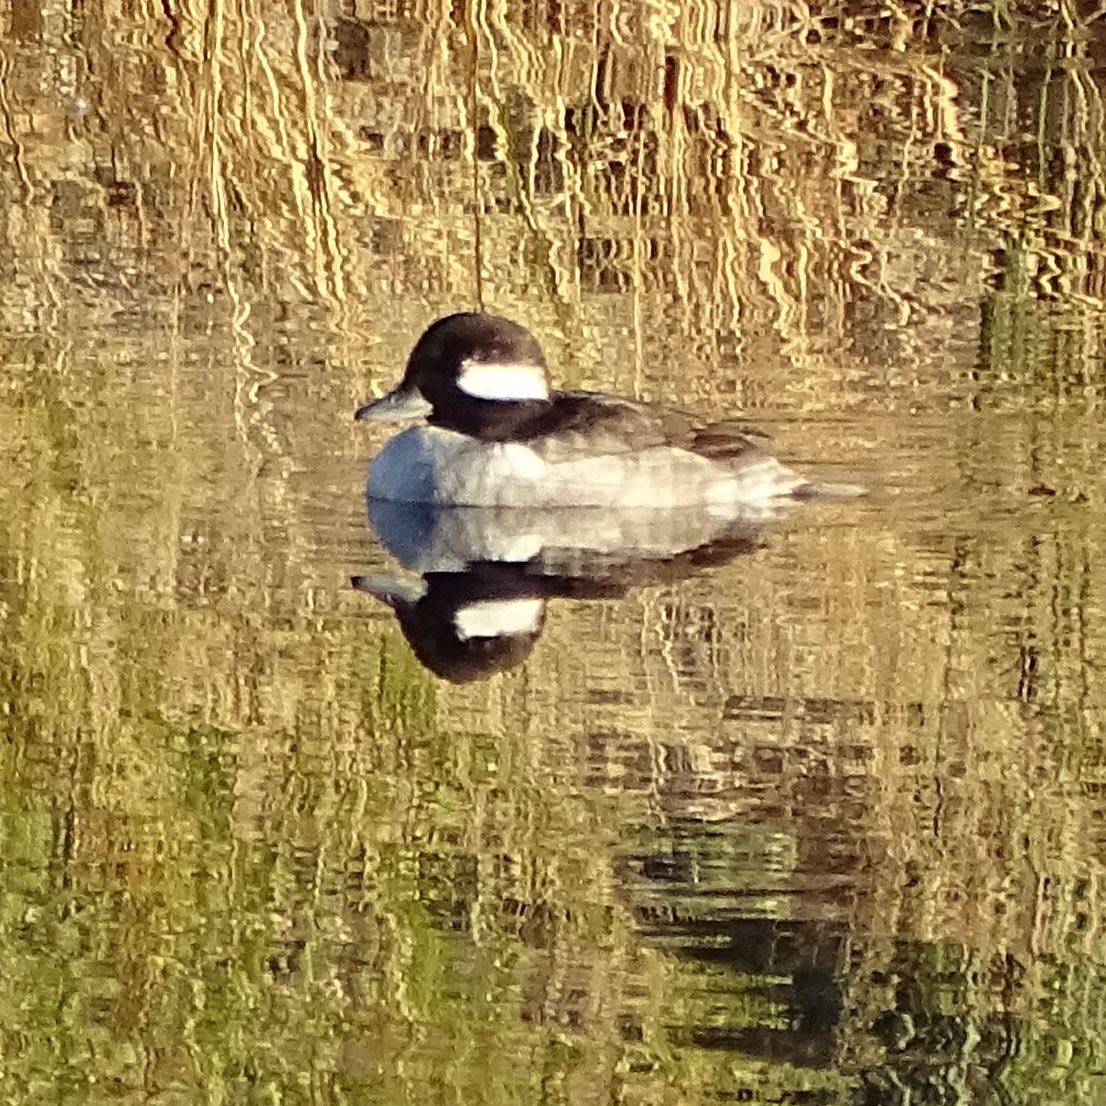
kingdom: Animalia
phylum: Chordata
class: Aves
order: Anseriformes
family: Anatidae
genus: Bucephala
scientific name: Bucephala albeola
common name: Bufflehead
